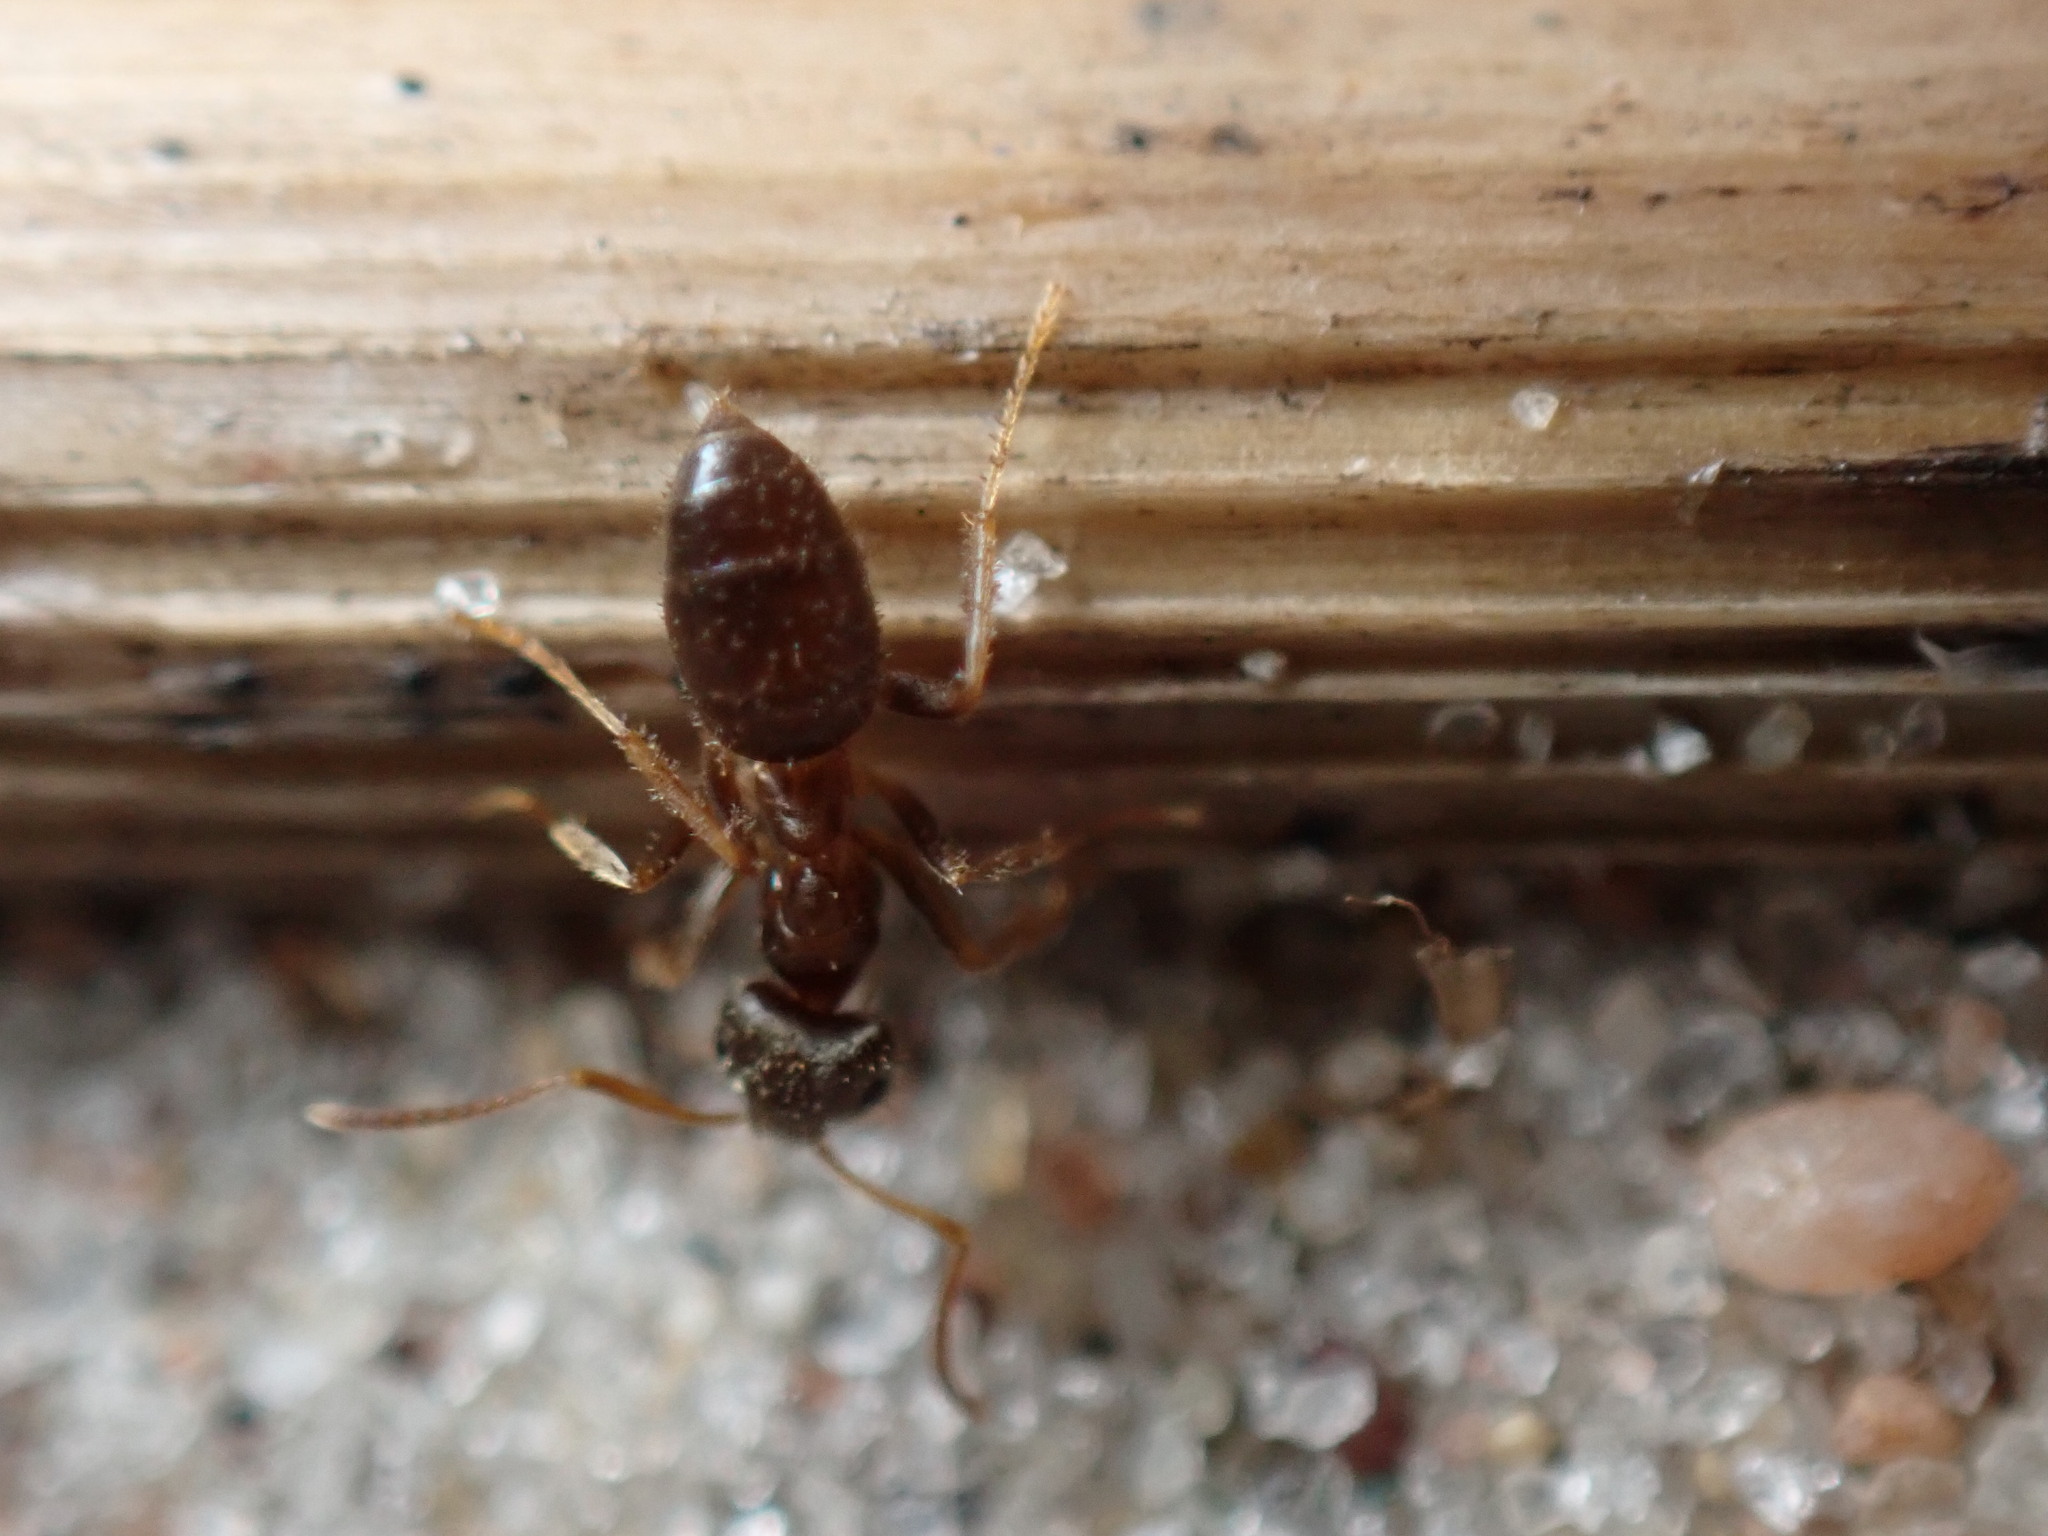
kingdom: Animalia
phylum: Arthropoda
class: Insecta
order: Hymenoptera
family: Formicidae
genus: Lasius
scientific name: Lasius neoniger
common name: Turfgrass ant
